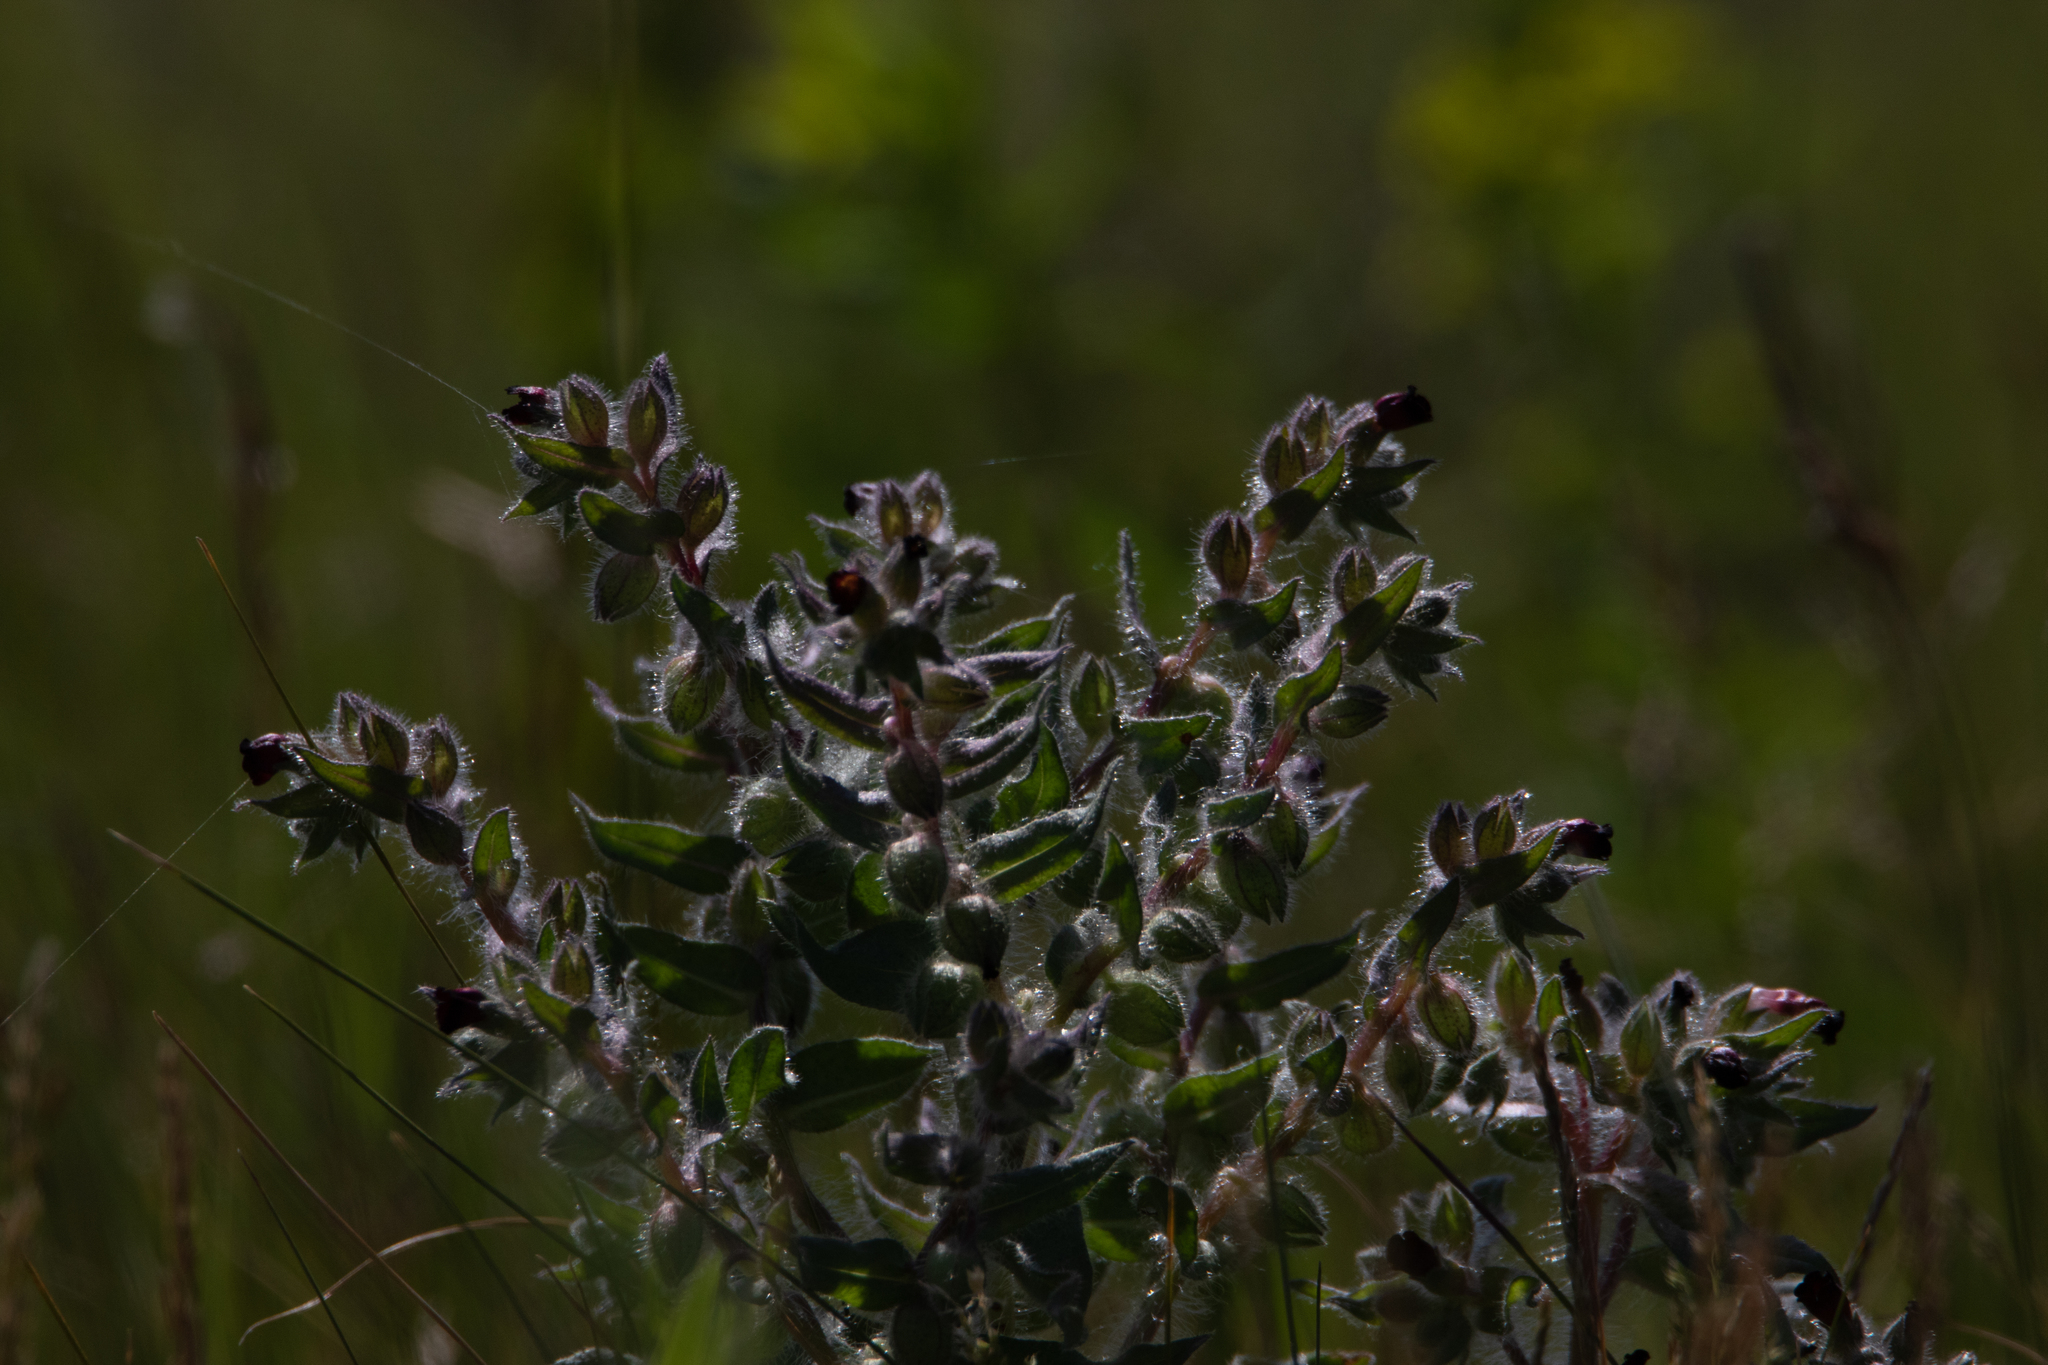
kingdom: Plantae
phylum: Tracheophyta
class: Magnoliopsida
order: Boraginales
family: Boraginaceae
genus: Nonea
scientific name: Nonea pulla
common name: Brown nonea
